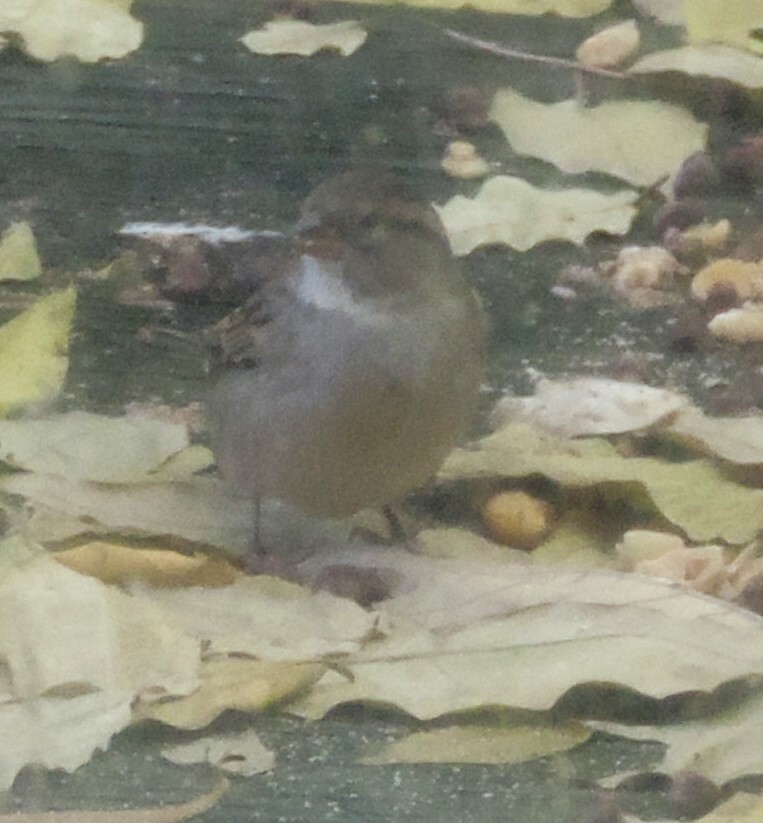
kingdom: Animalia
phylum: Chordata
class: Aves
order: Passeriformes
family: Passeridae
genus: Passer
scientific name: Passer domesticus
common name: House sparrow
